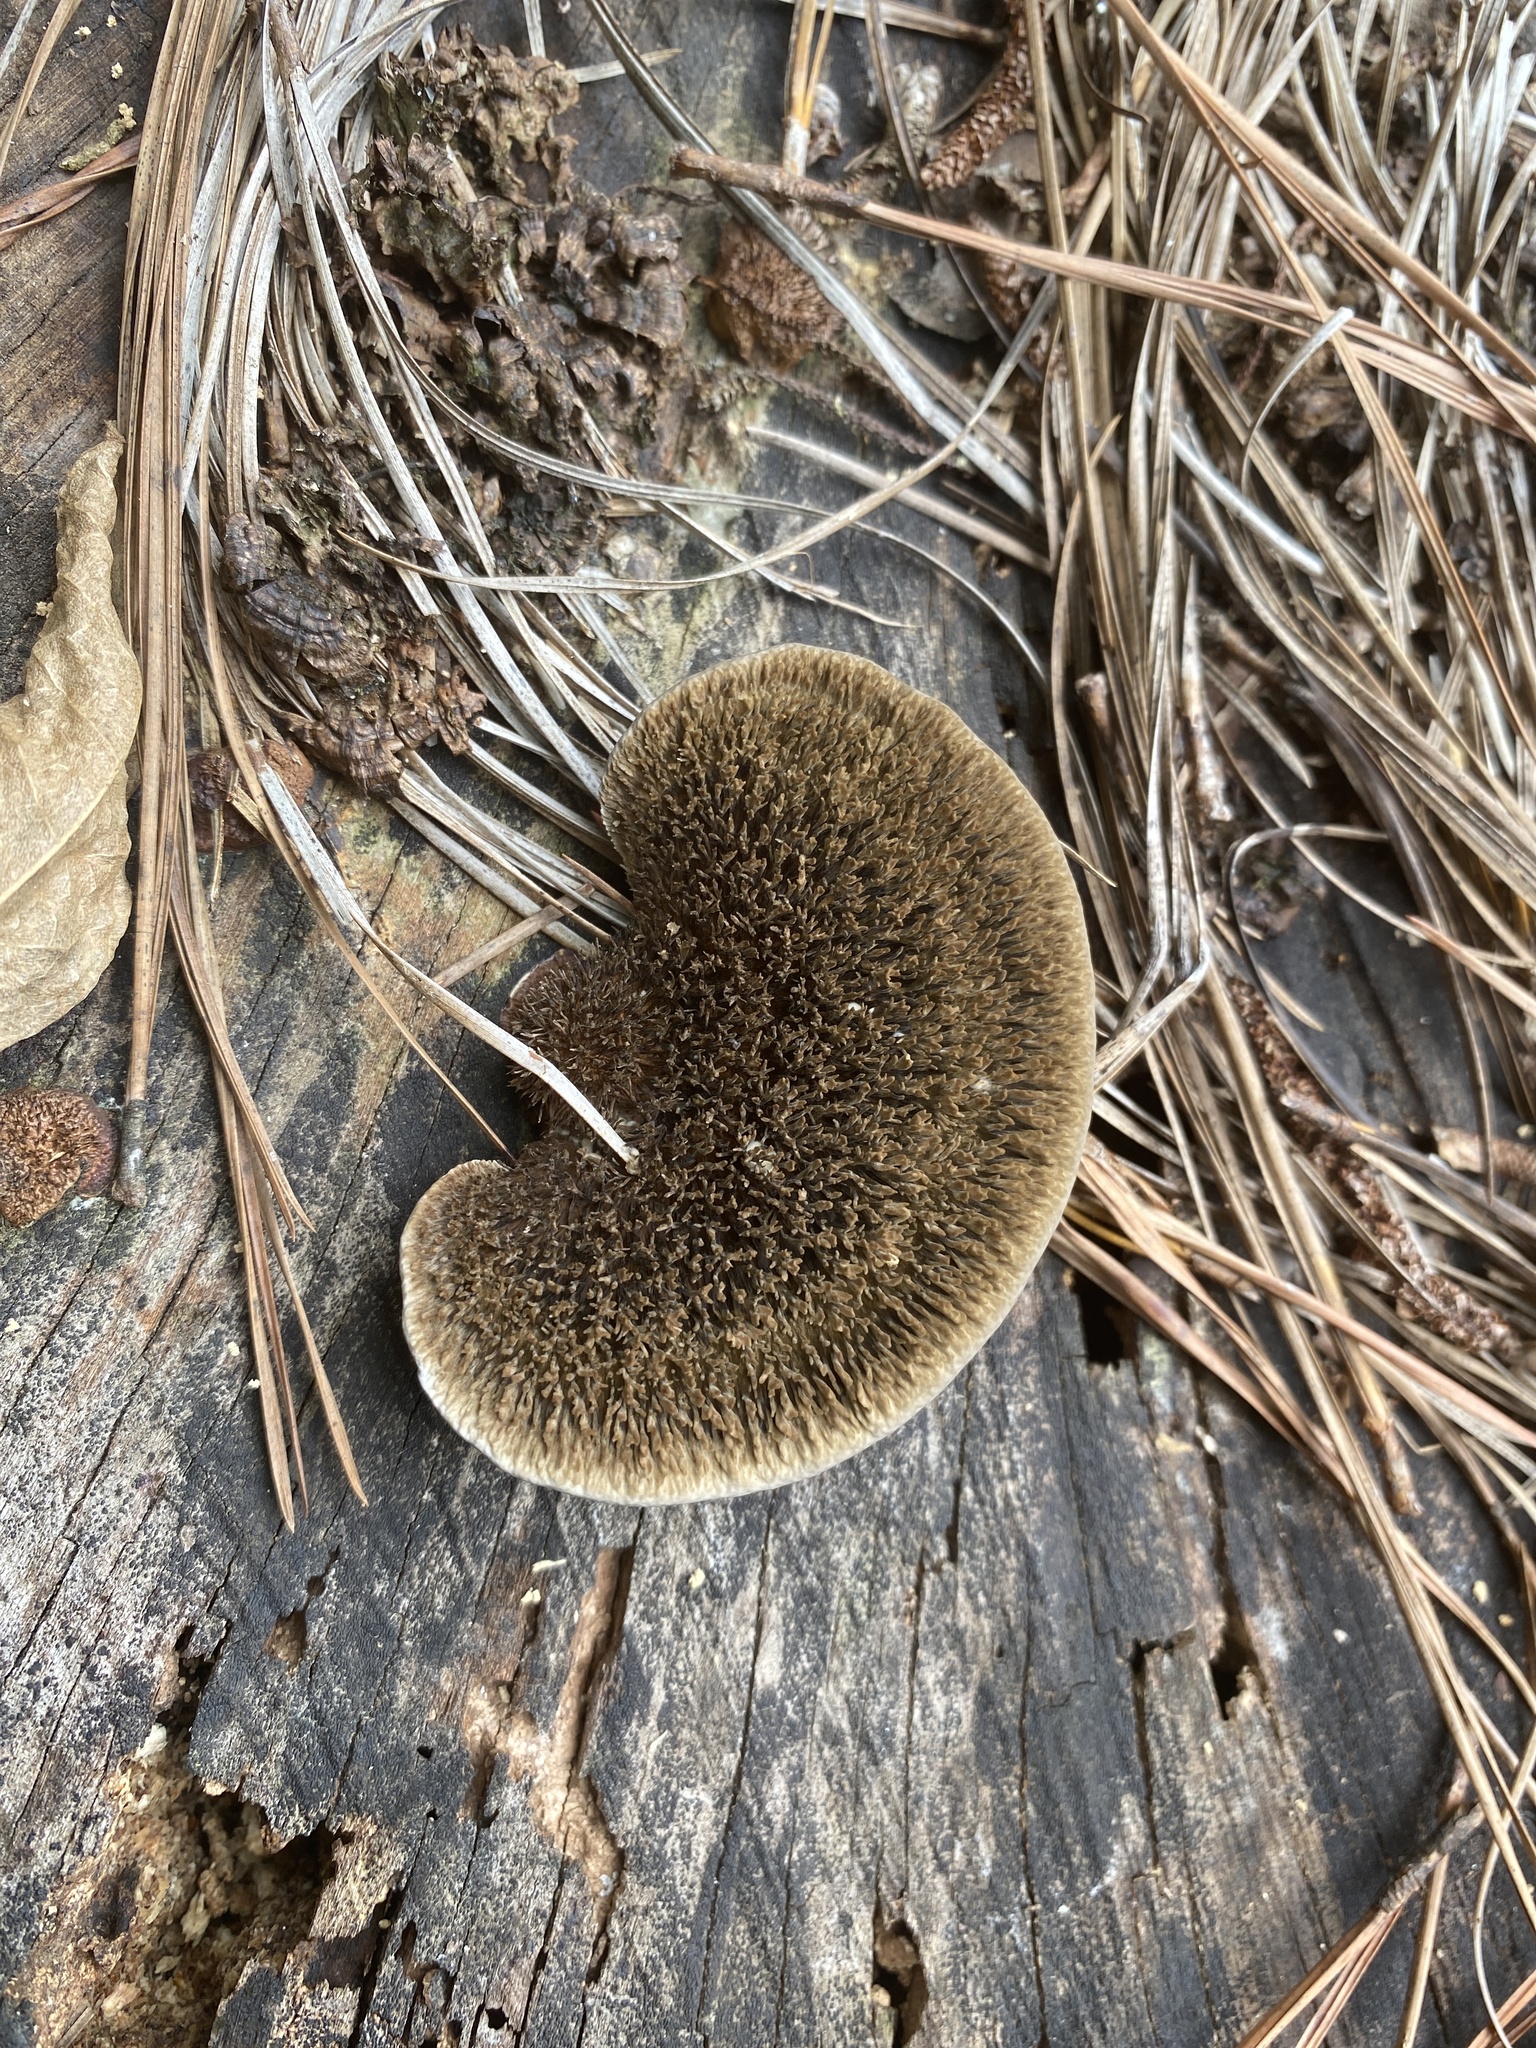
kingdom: Fungi
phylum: Basidiomycota
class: Agaricomycetes
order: Polyporales
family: Cerrenaceae
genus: Cerrena
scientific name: Cerrena hydnoides
